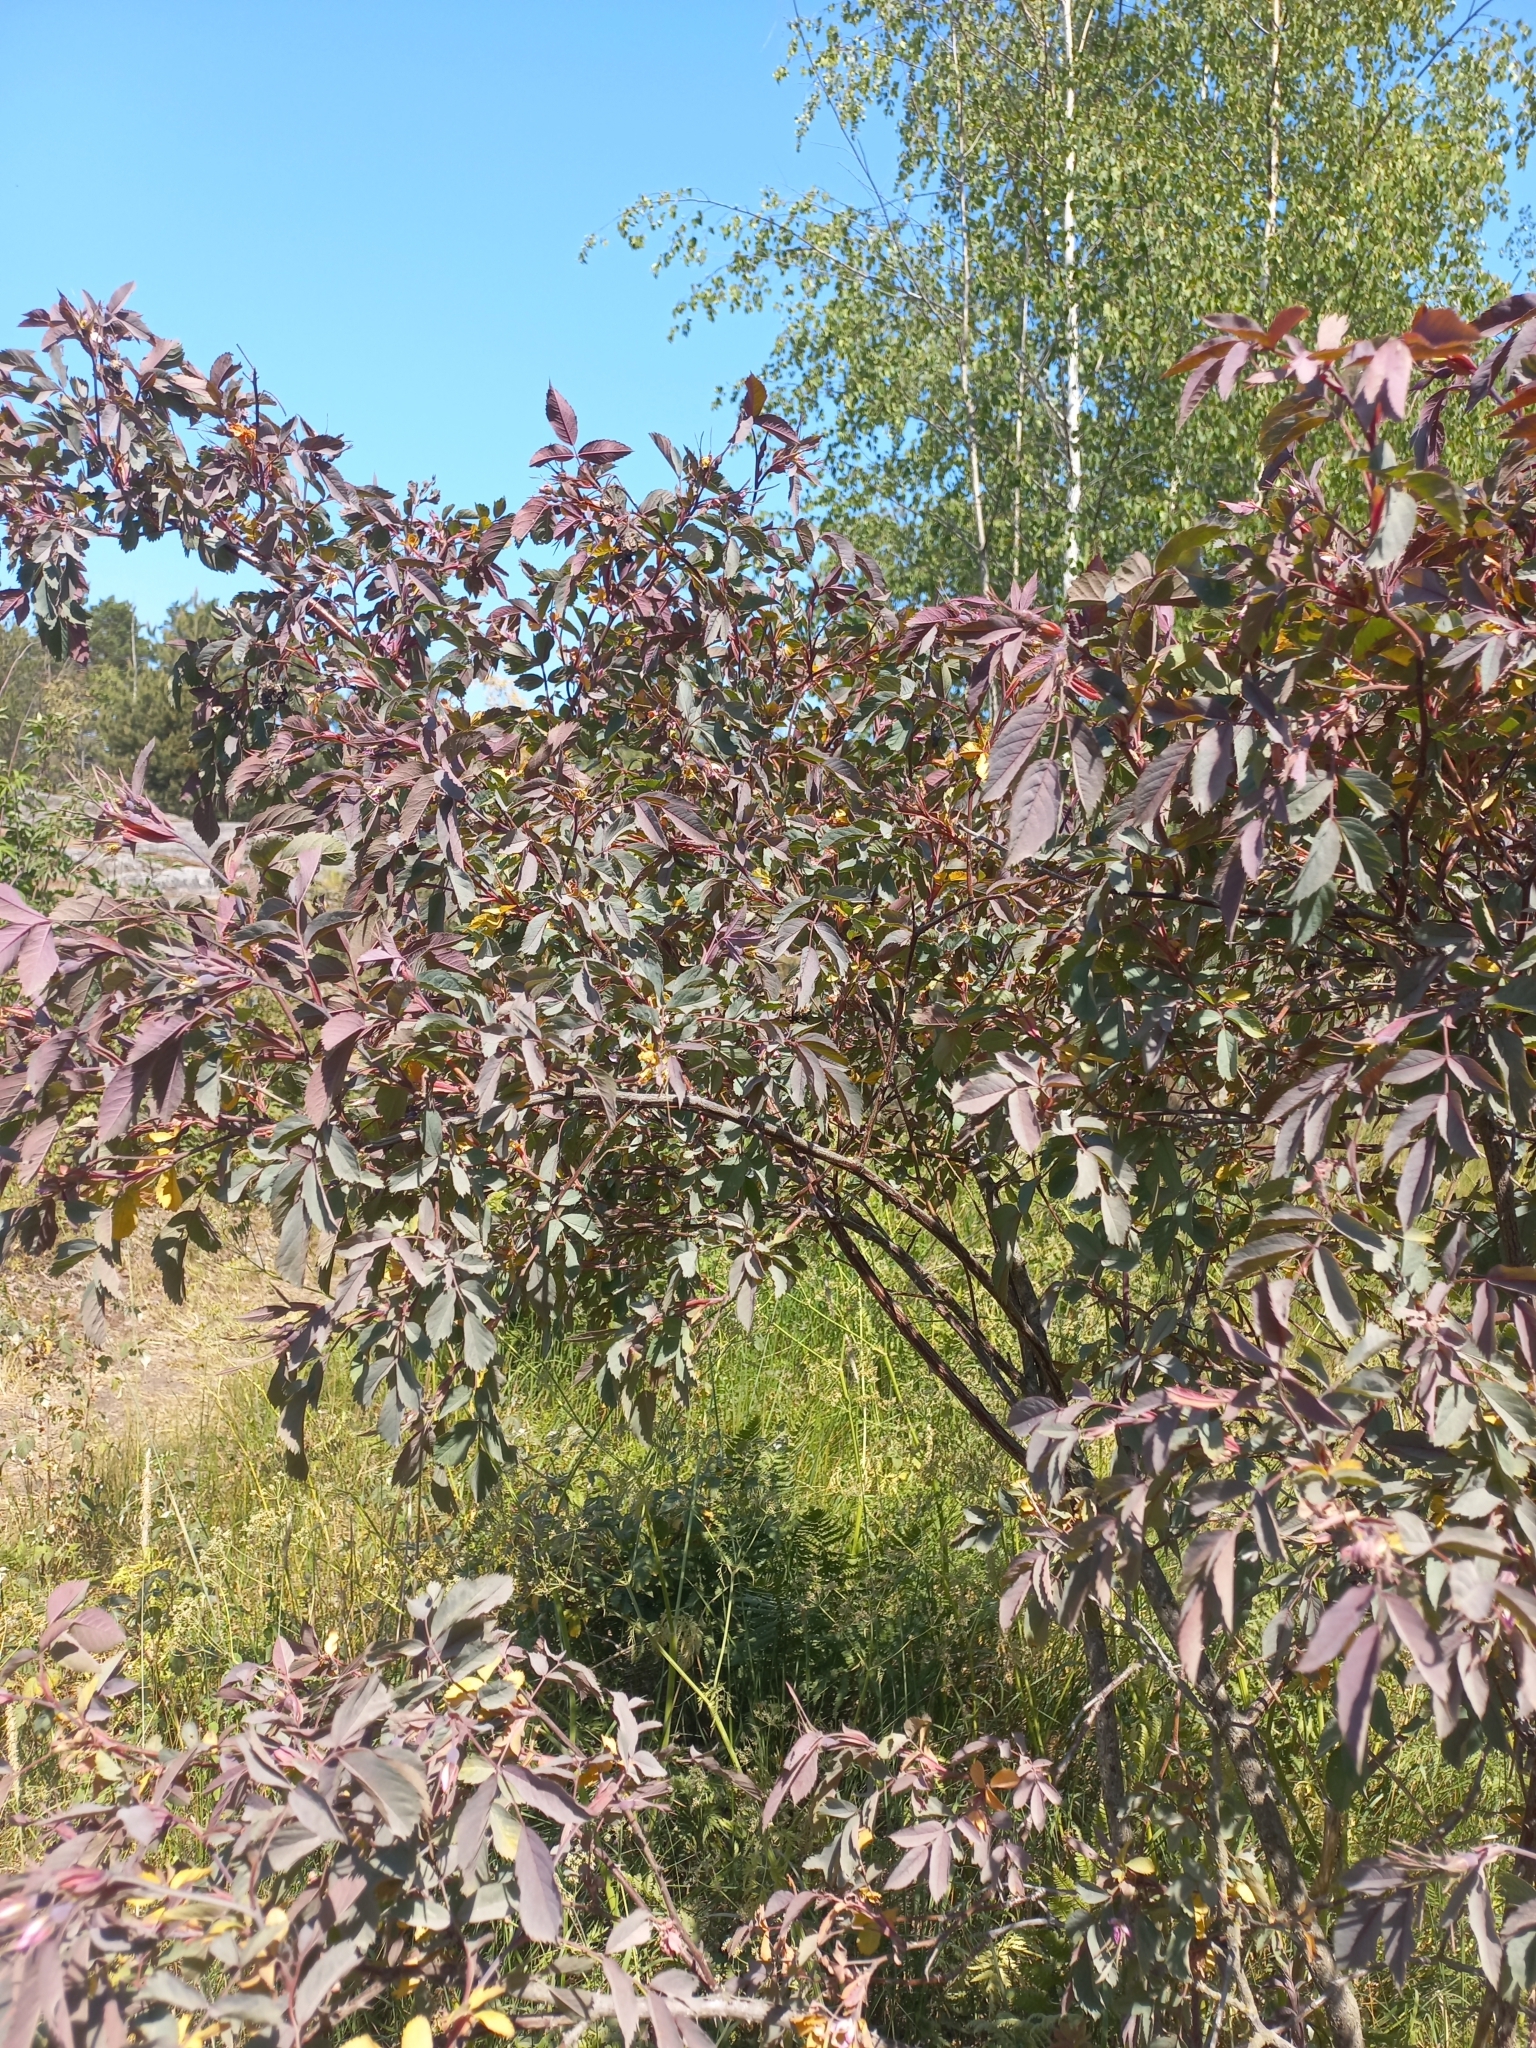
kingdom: Plantae
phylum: Tracheophyta
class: Magnoliopsida
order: Rosales
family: Rosaceae
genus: Rosa
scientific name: Rosa glauca
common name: Redleaf rose
